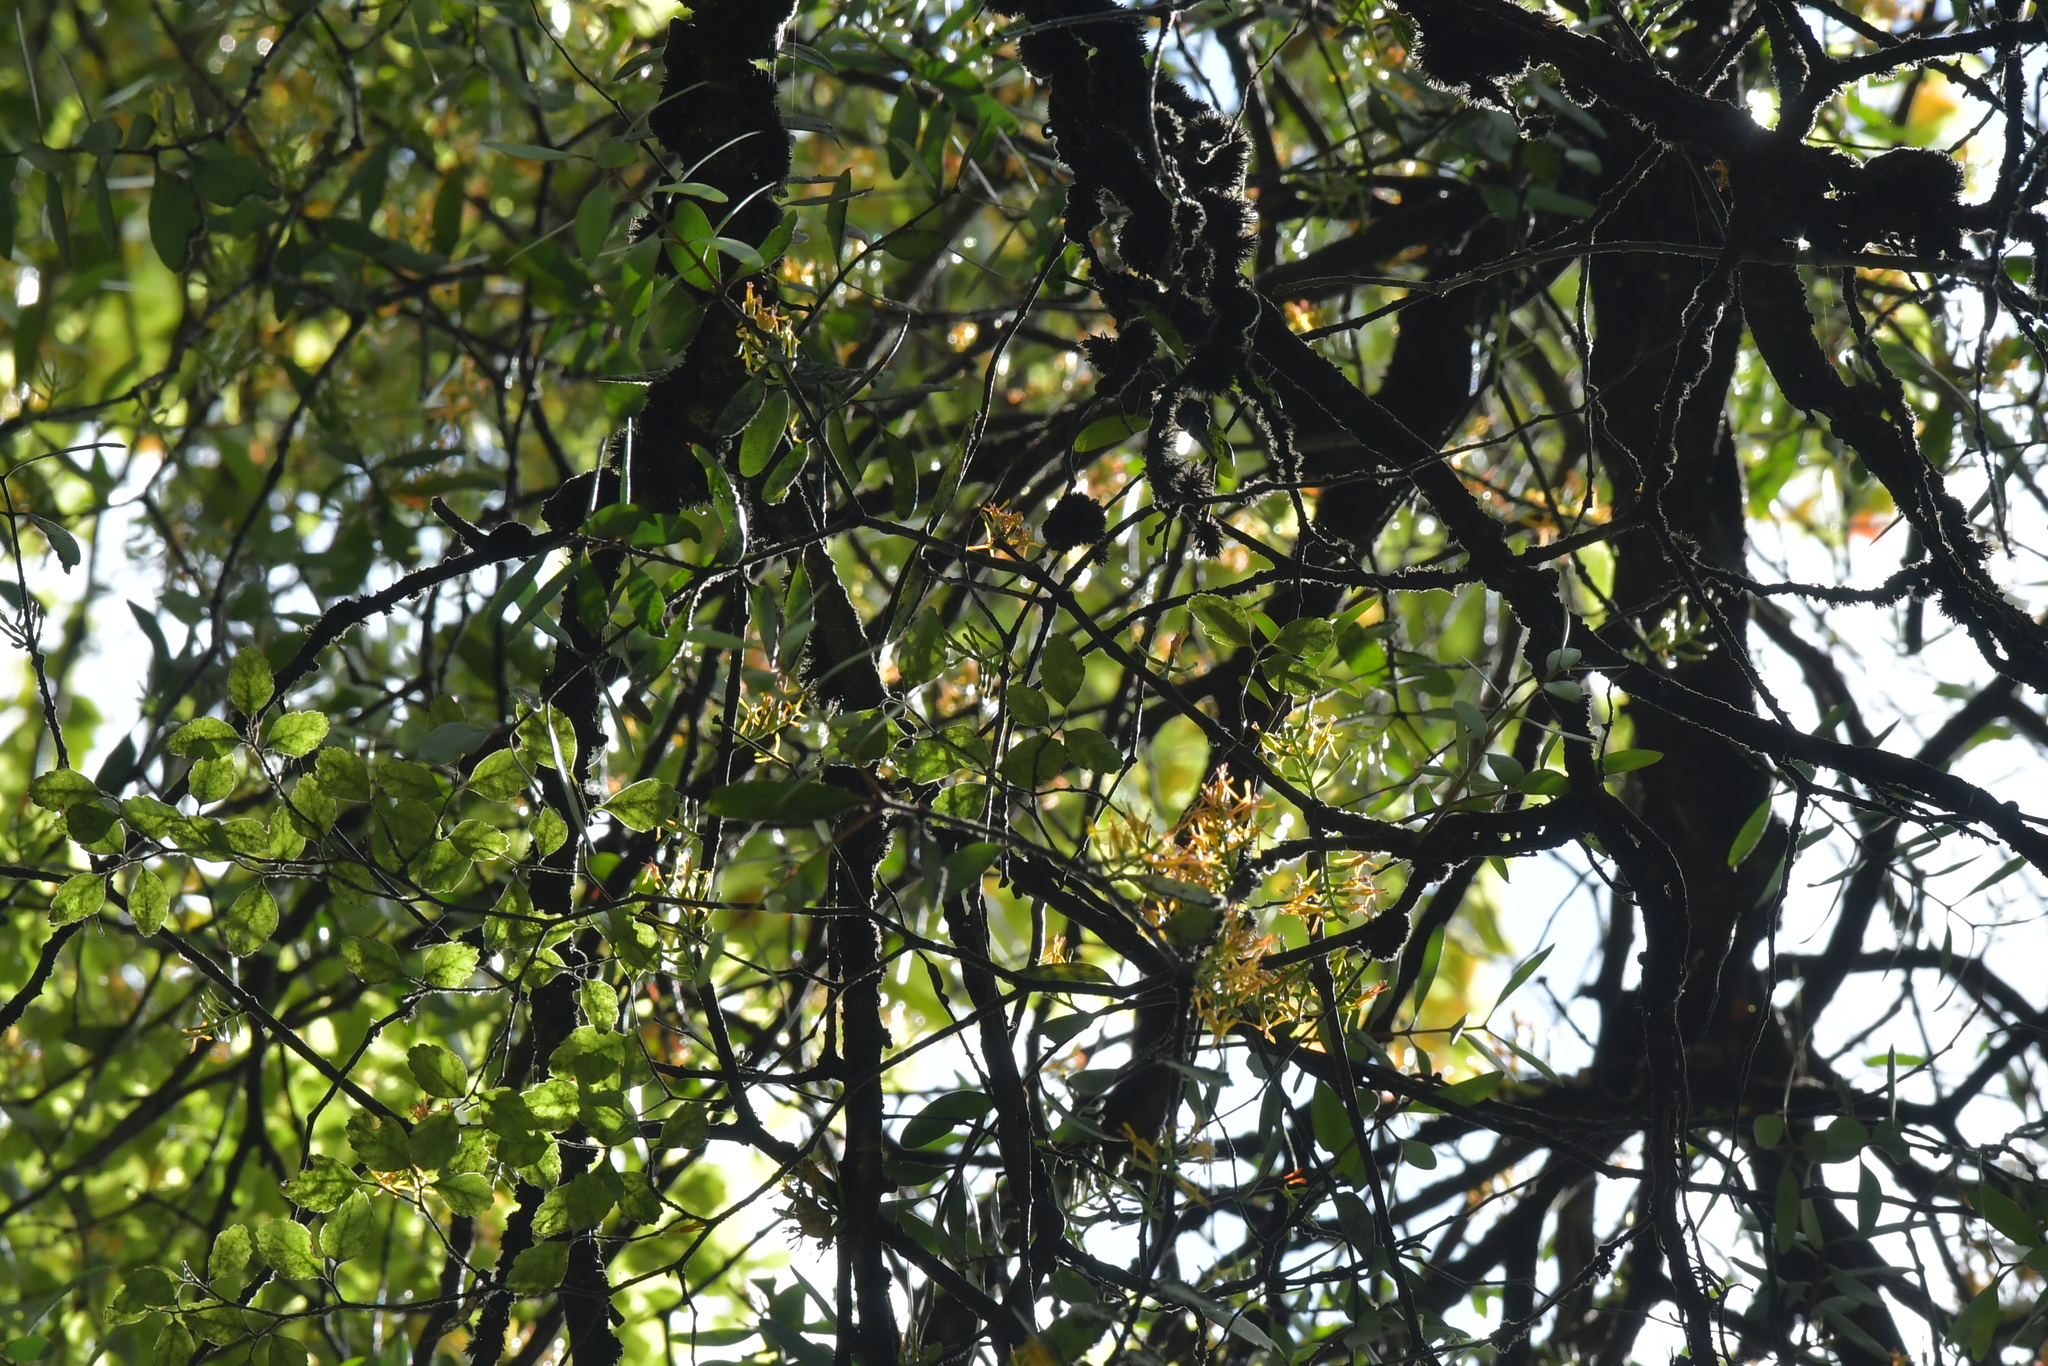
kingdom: Plantae
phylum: Tracheophyta
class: Magnoliopsida
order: Santalales
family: Loranthaceae
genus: Alepis
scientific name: Alepis flavida
